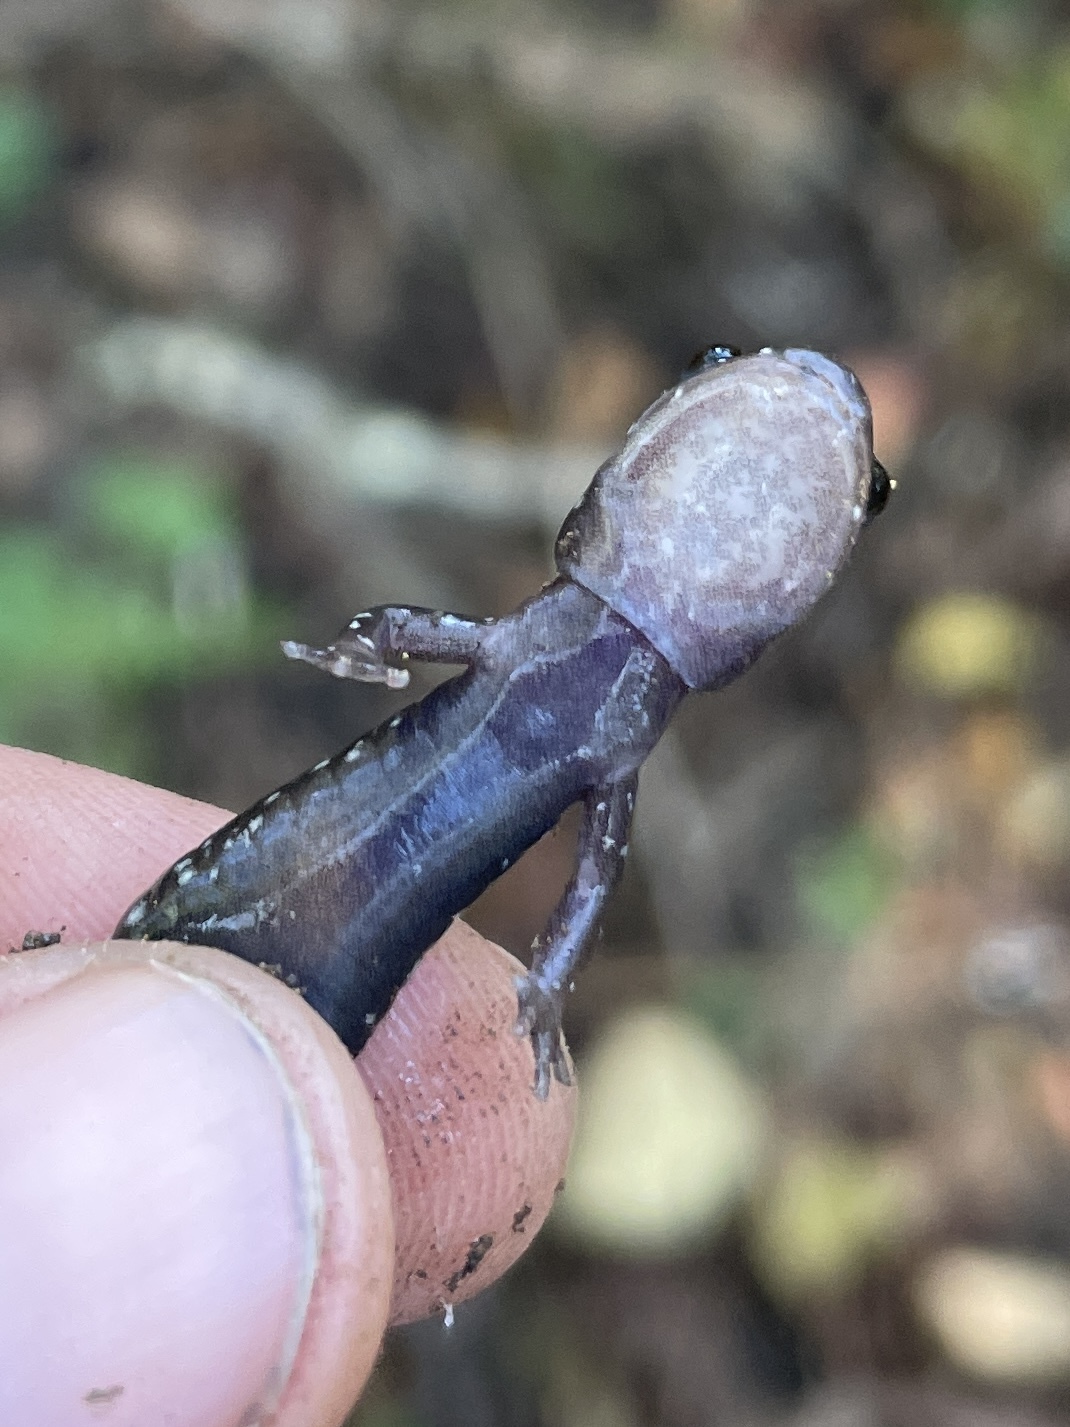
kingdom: Animalia
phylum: Chordata
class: Amphibia
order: Caudata
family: Plethodontidae
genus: Plethodon
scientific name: Plethodon ouachitae
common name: Rich mountain salamander
